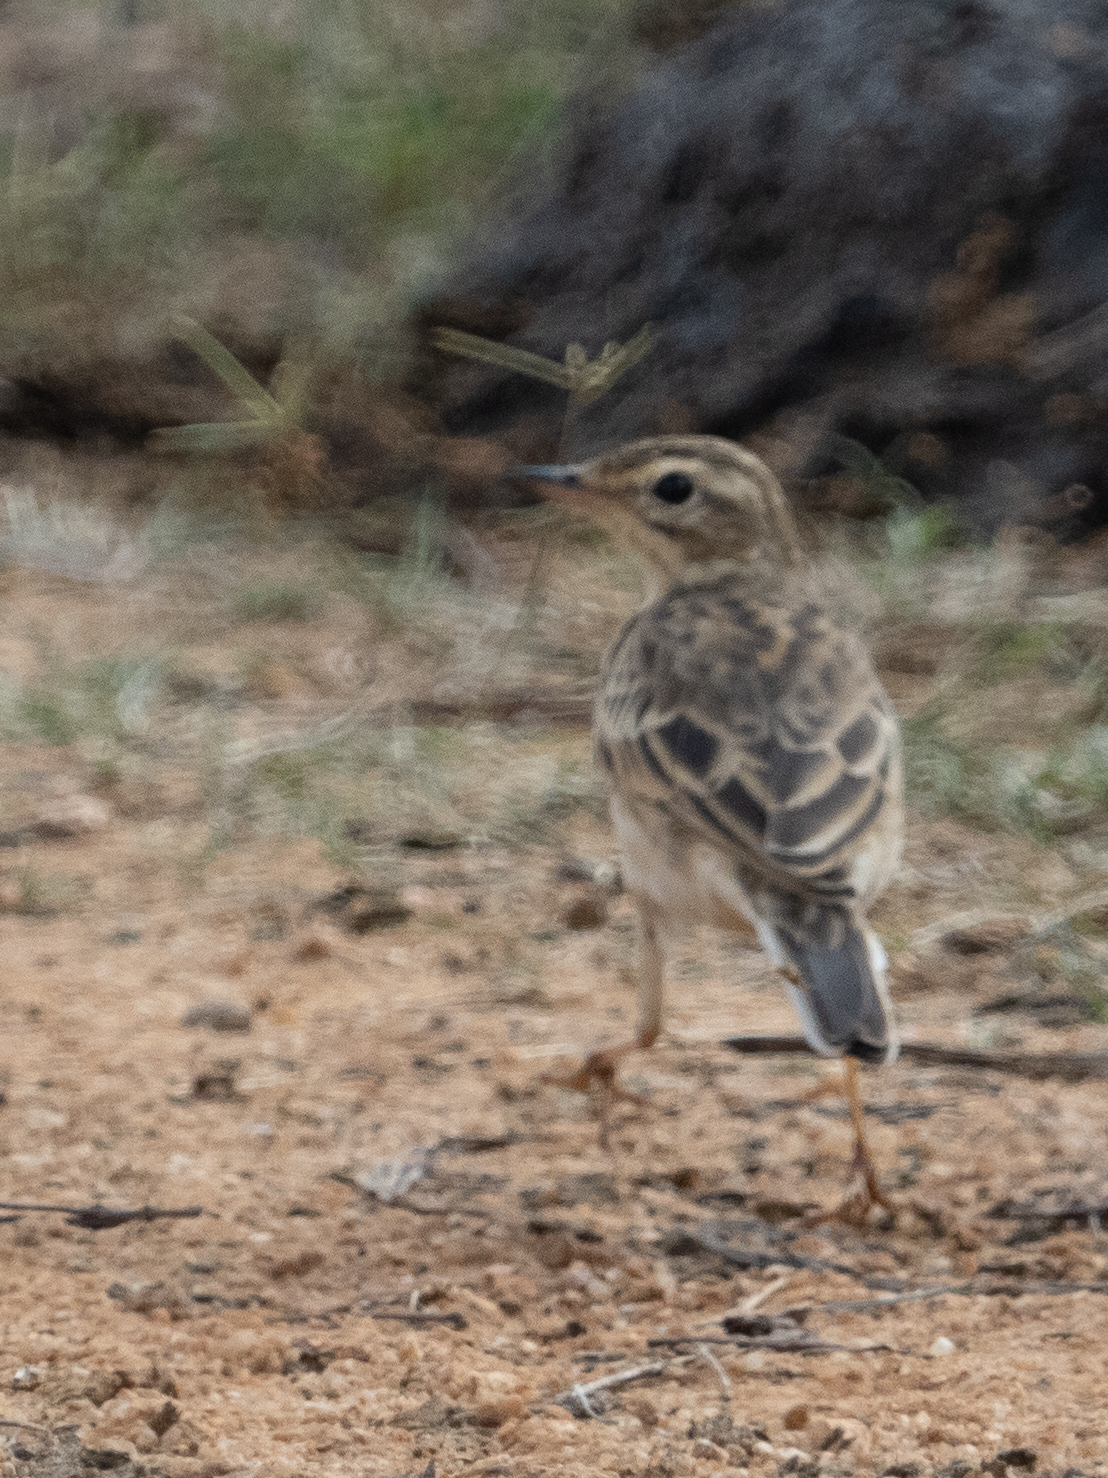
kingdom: Animalia
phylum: Chordata
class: Aves
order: Passeriformes
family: Motacillidae
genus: Anthus
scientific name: Anthus rufulus
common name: Paddyfield pipit
